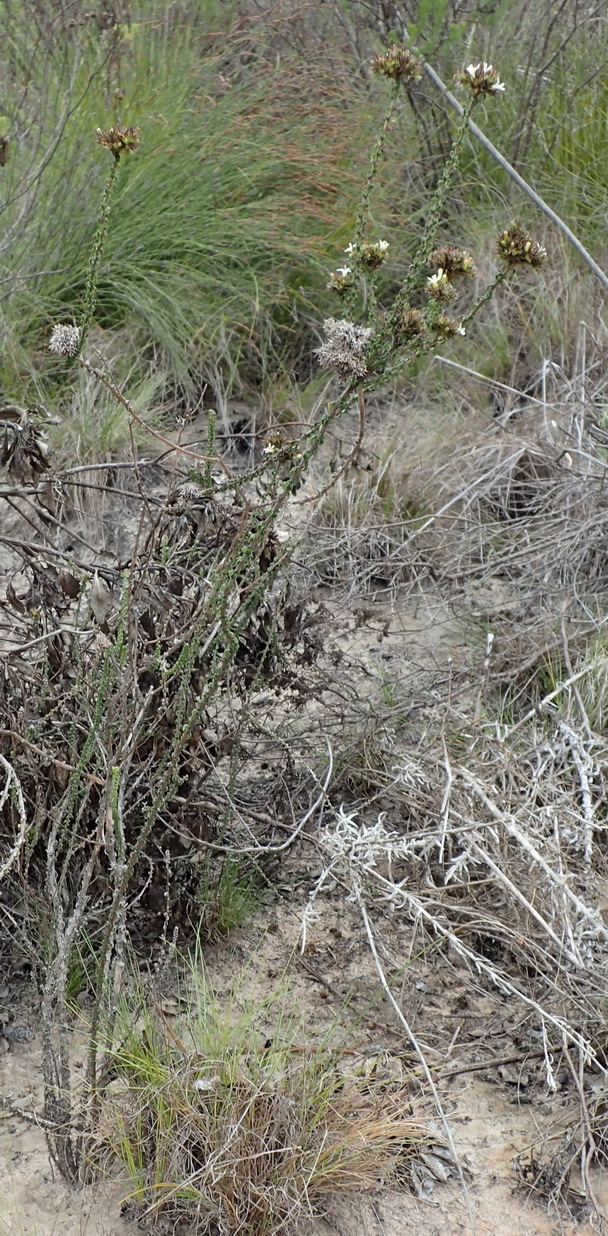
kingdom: Plantae
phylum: Tracheophyta
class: Magnoliopsida
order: Asterales
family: Campanulaceae
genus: Wahlenbergia
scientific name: Wahlenbergia desmantha
